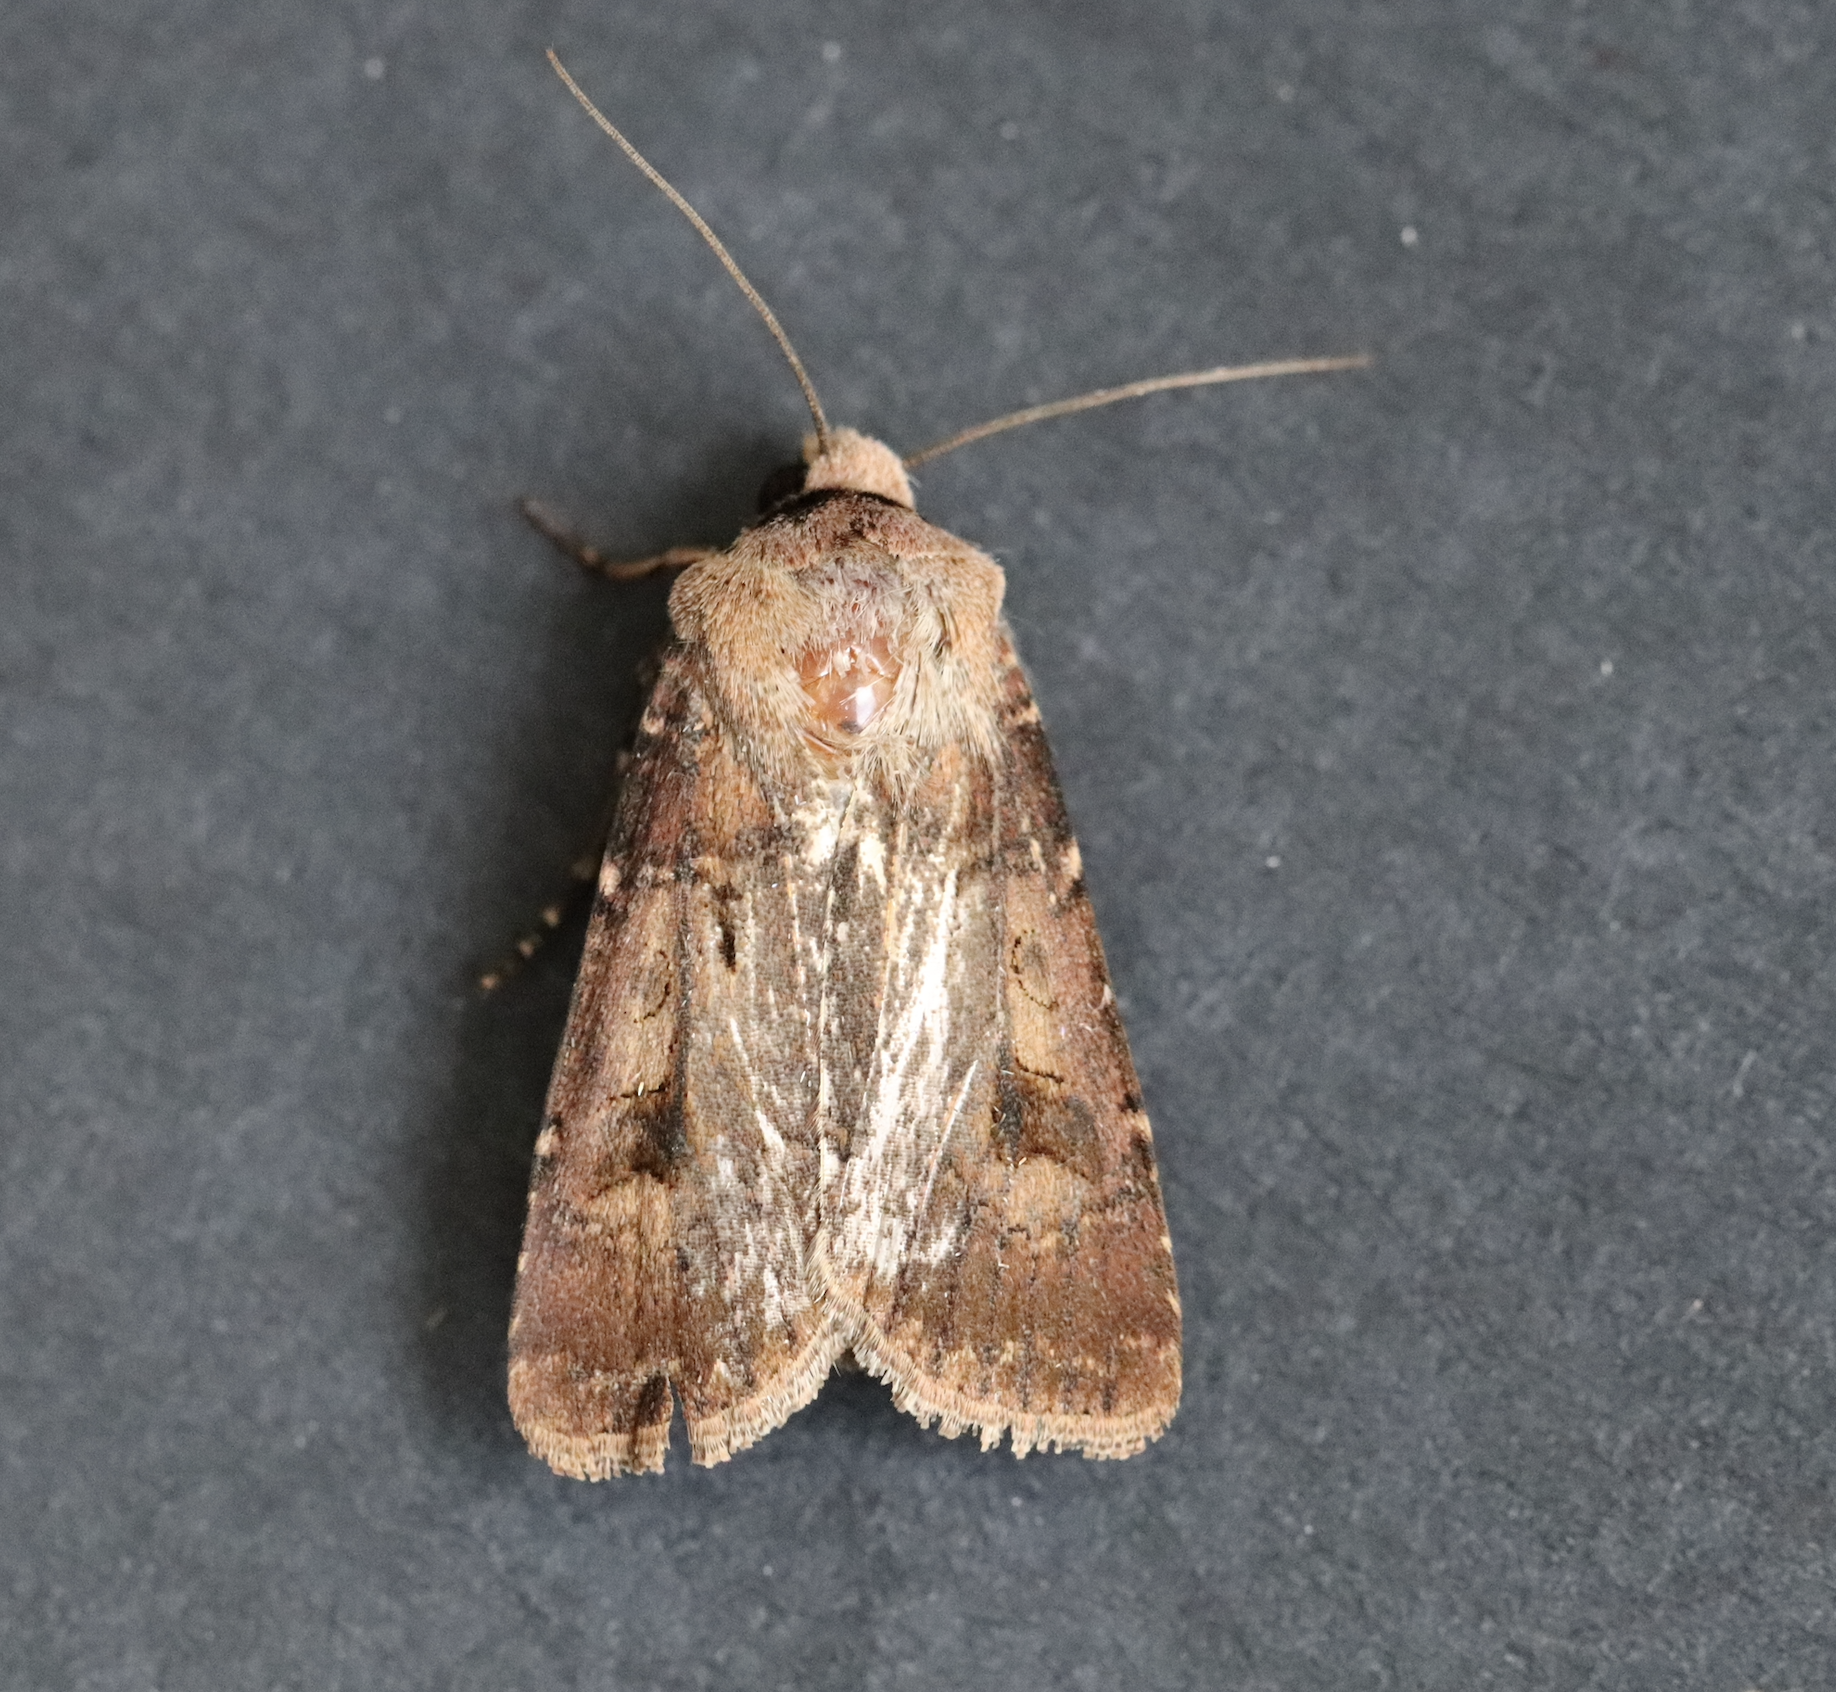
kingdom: Animalia
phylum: Arthropoda
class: Insecta
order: Lepidoptera
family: Noctuidae
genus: Agrotis
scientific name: Agrotis exclamationis
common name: Heart and dart
